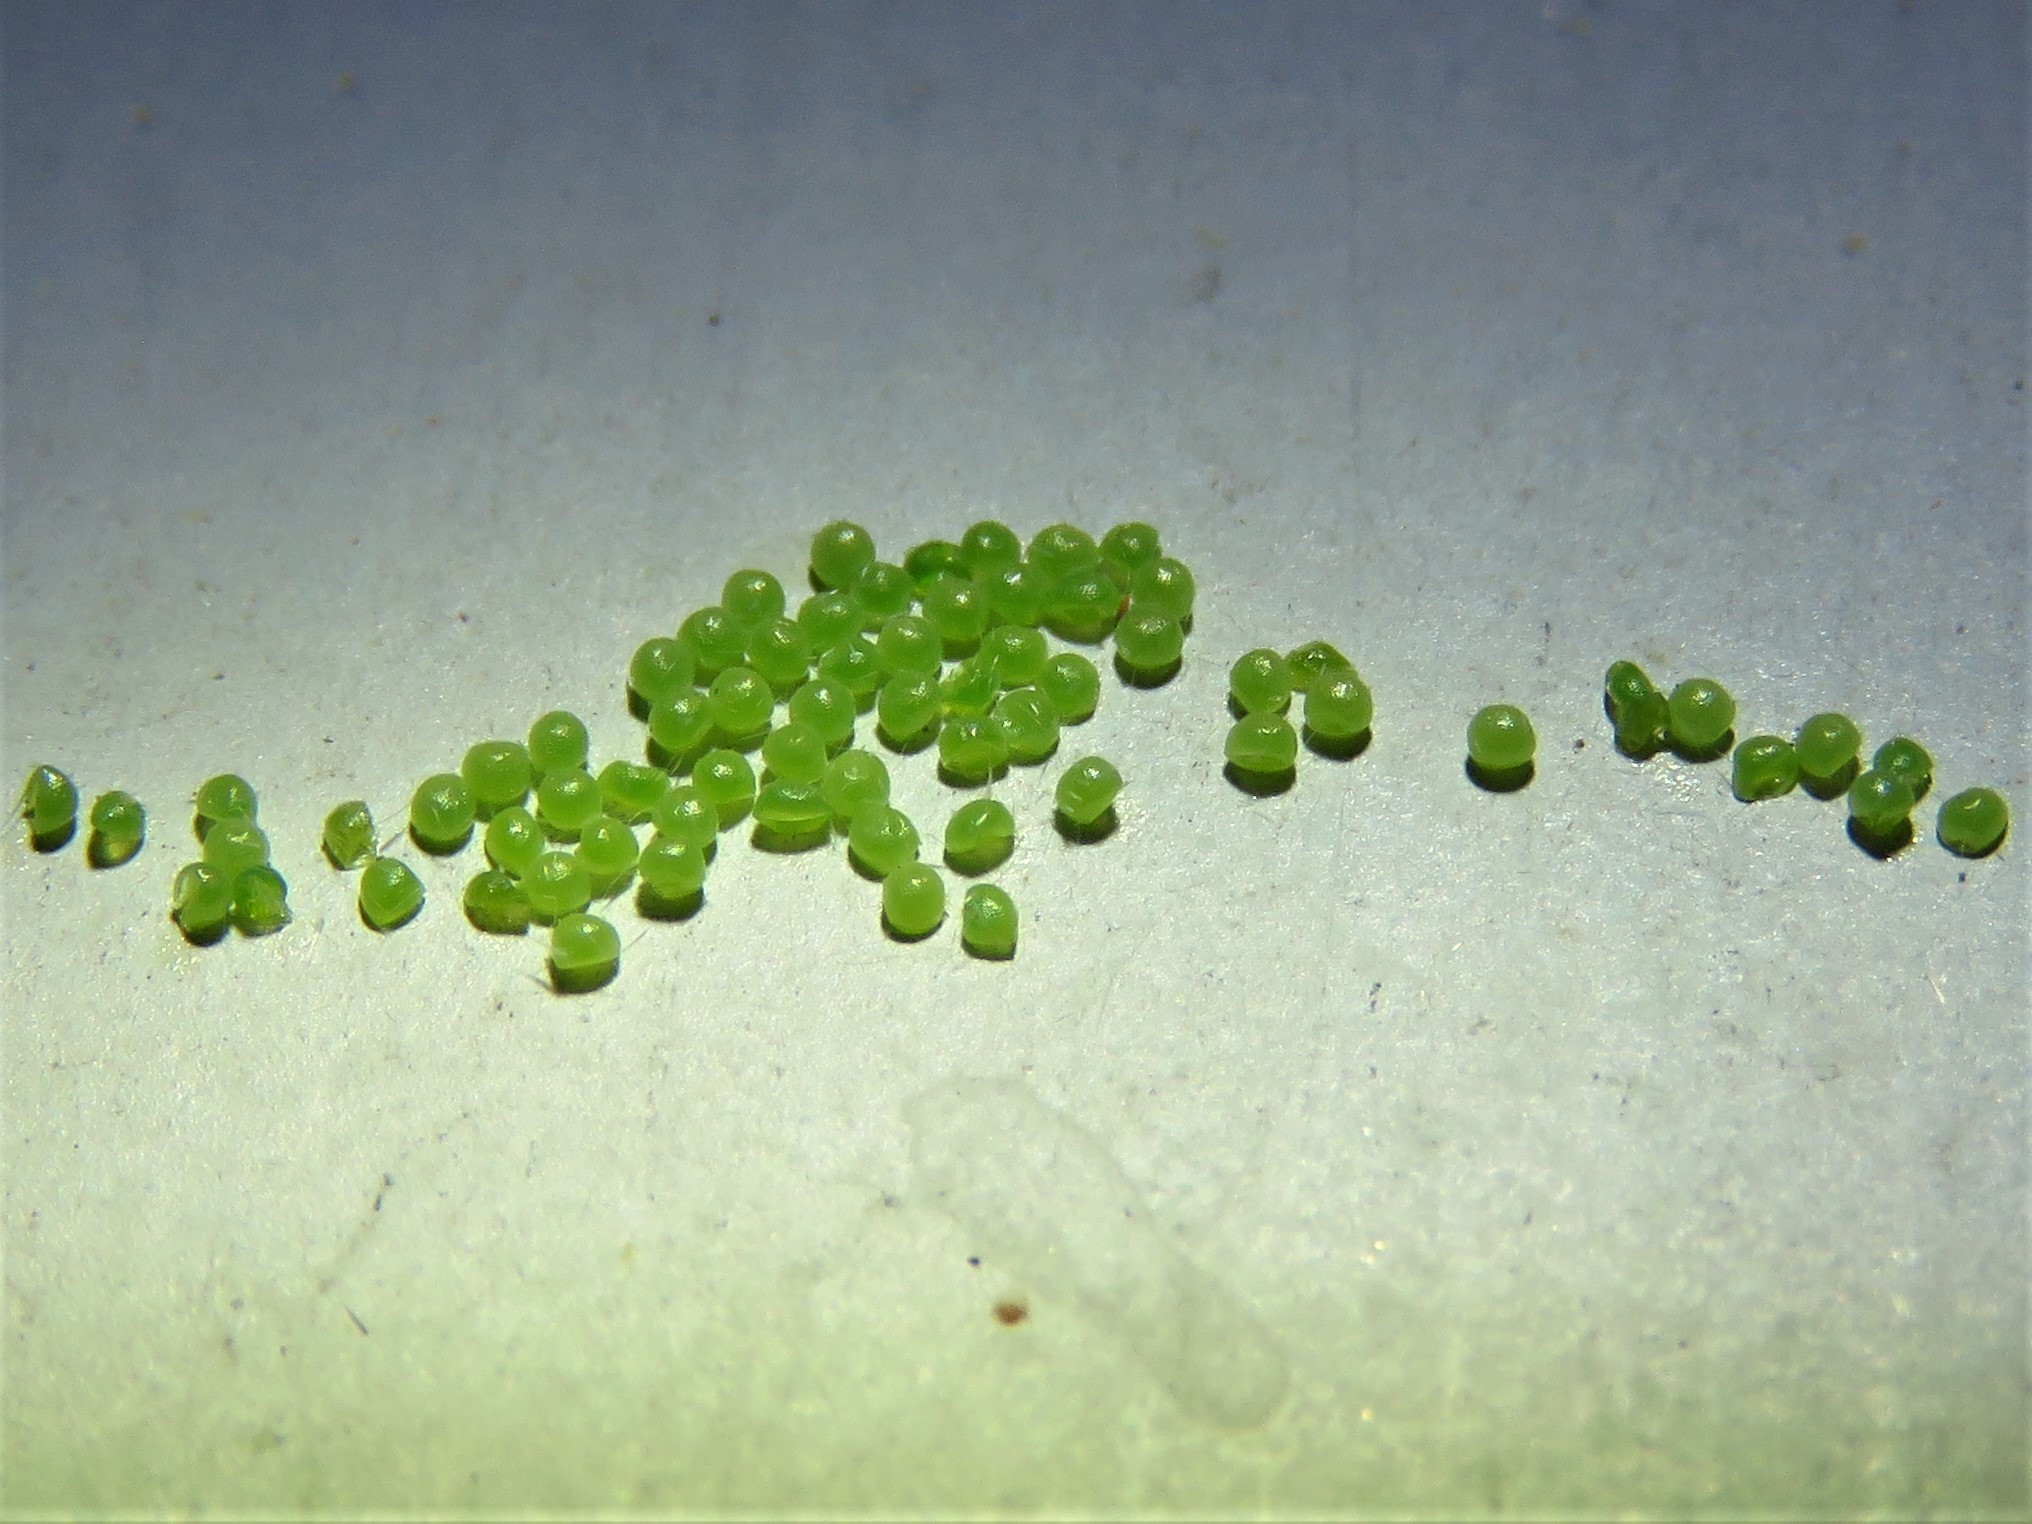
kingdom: Animalia
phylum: Arthropoda
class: Insecta
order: Lepidoptera
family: Erebidae
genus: Hyphantria
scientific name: Hyphantria cunea
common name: American white moth
